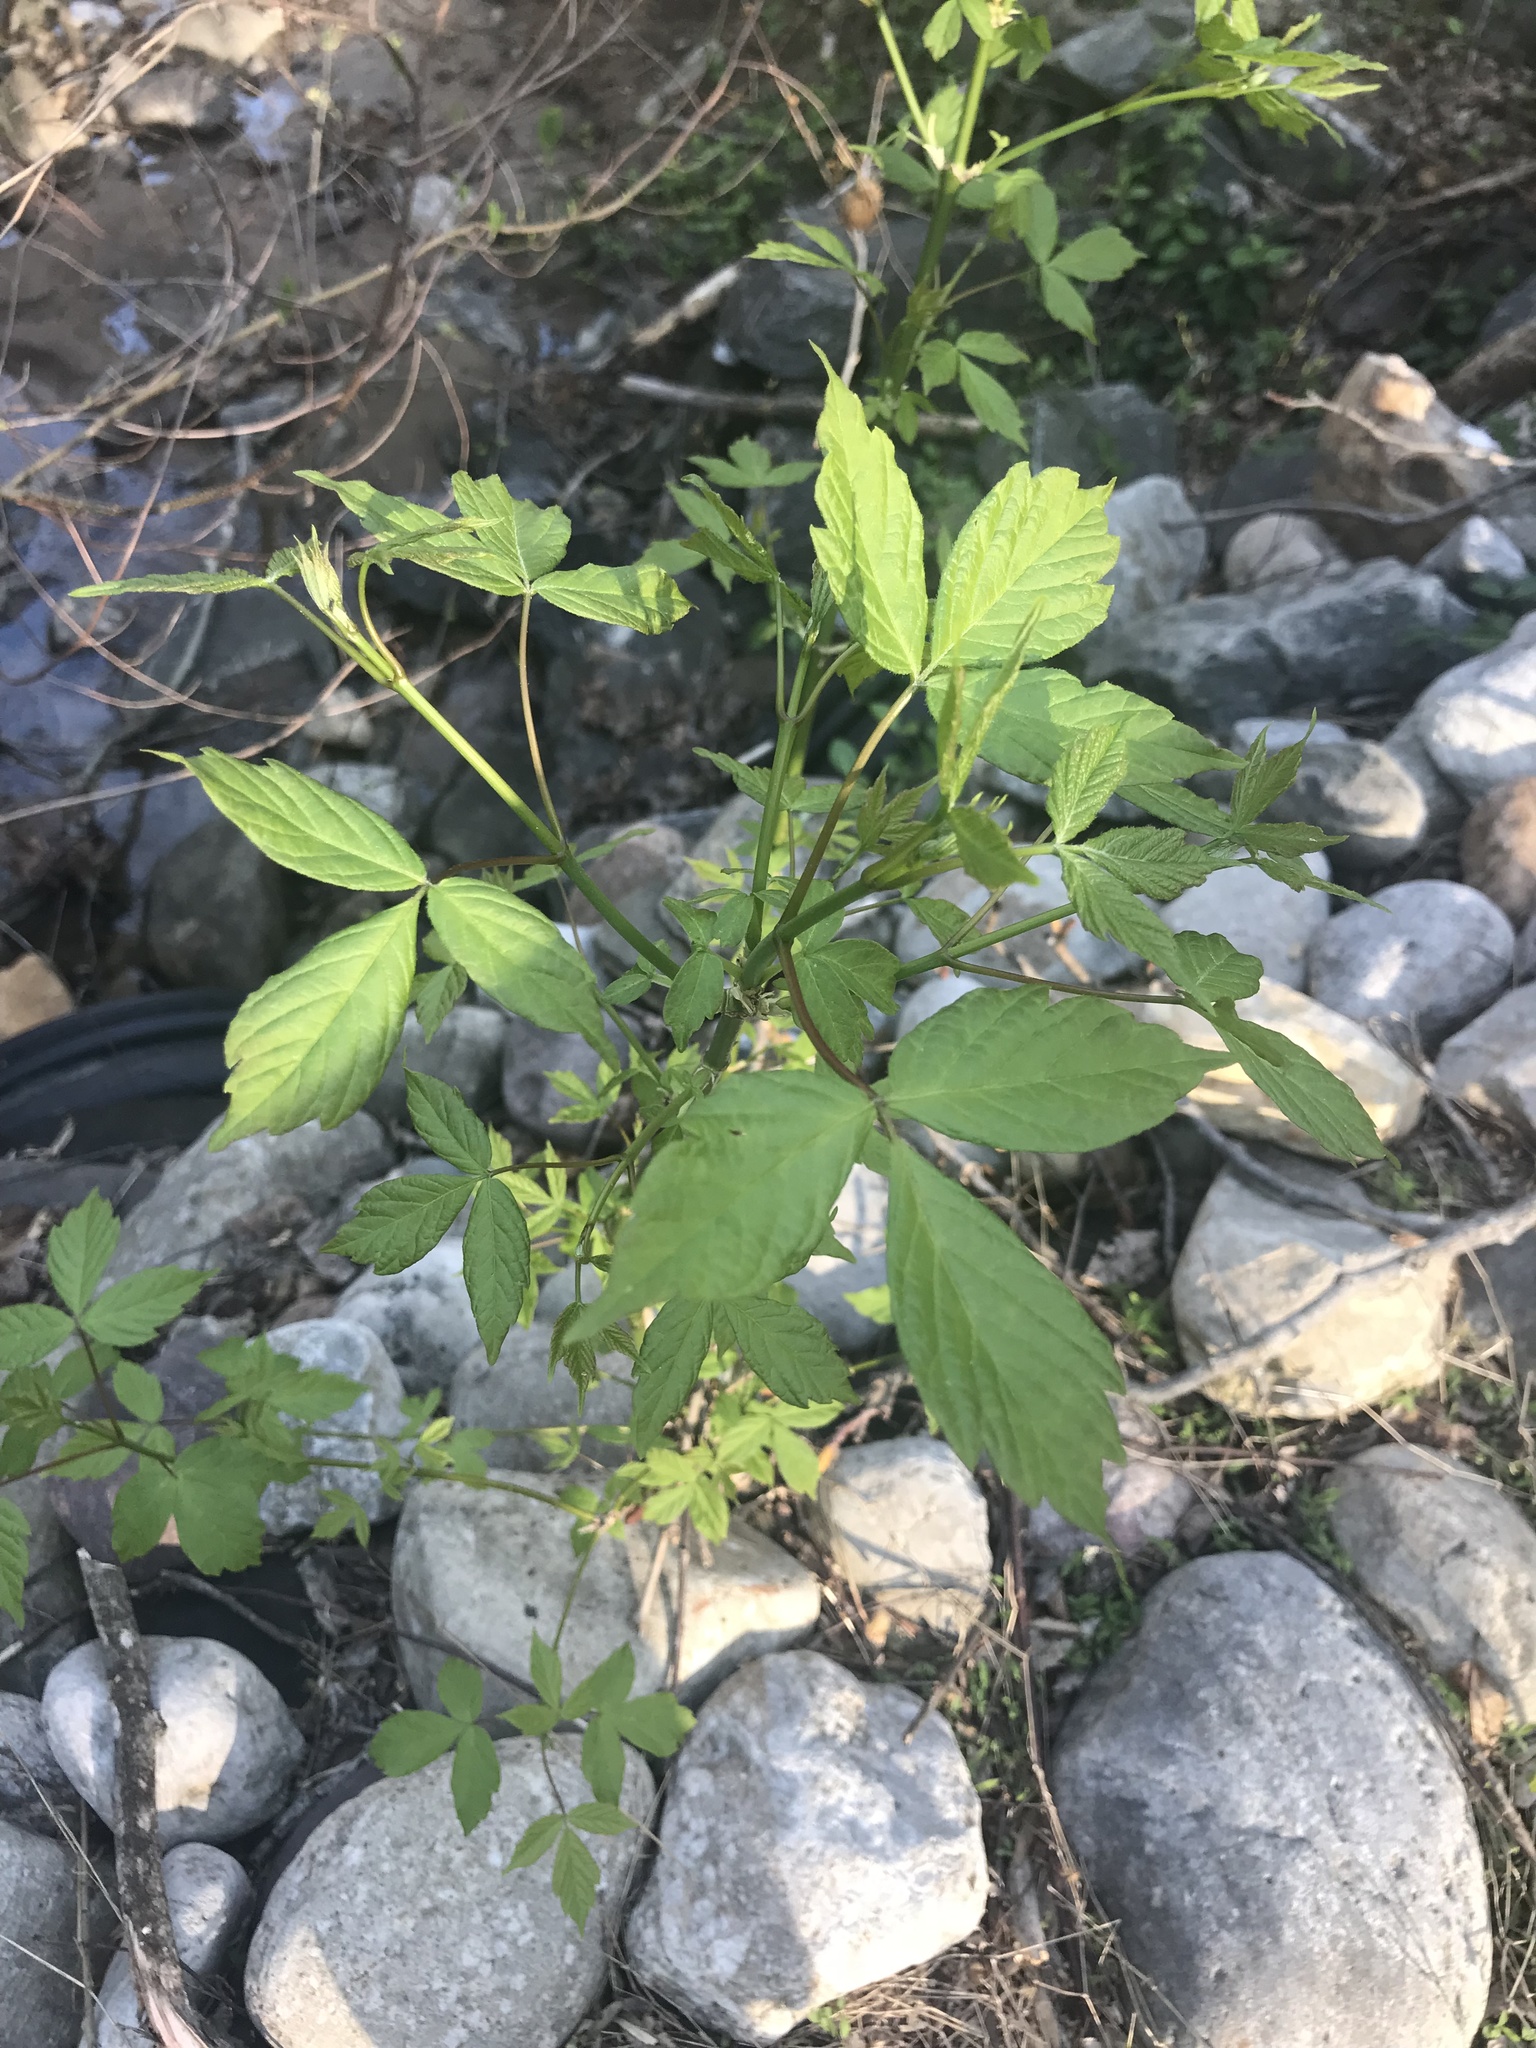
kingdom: Plantae
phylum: Tracheophyta
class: Magnoliopsida
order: Sapindales
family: Sapindaceae
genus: Acer
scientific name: Acer negundo
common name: Ashleaf maple
